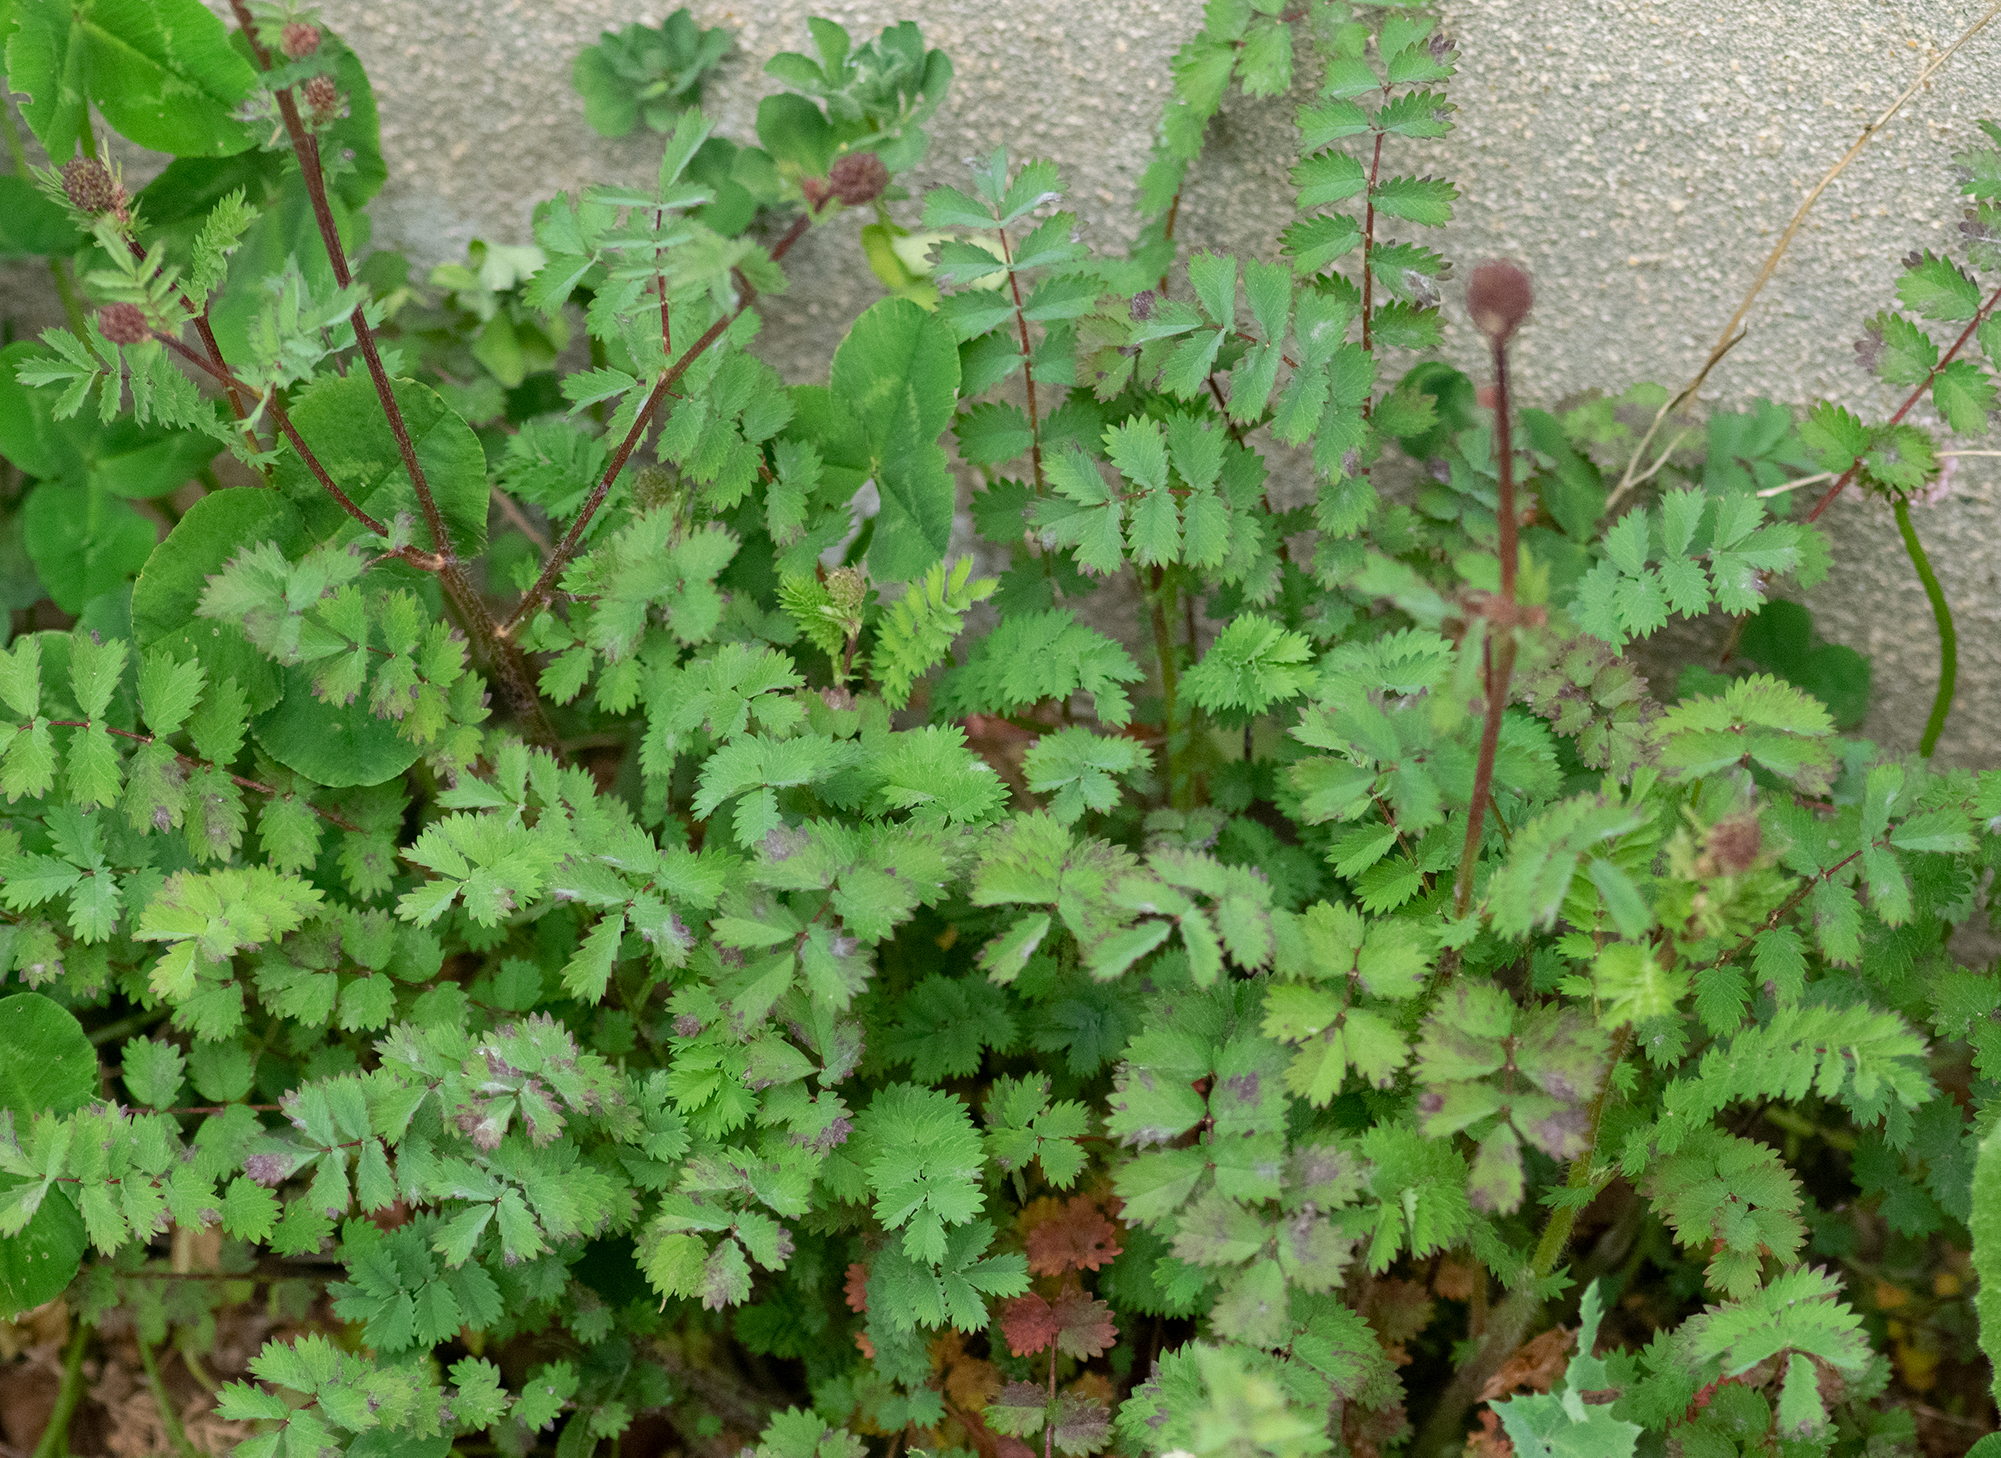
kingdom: Plantae
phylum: Tracheophyta
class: Magnoliopsida
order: Rosales
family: Rosaceae
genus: Poterium
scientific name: Poterium sanguisorba
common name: Salad burnet
